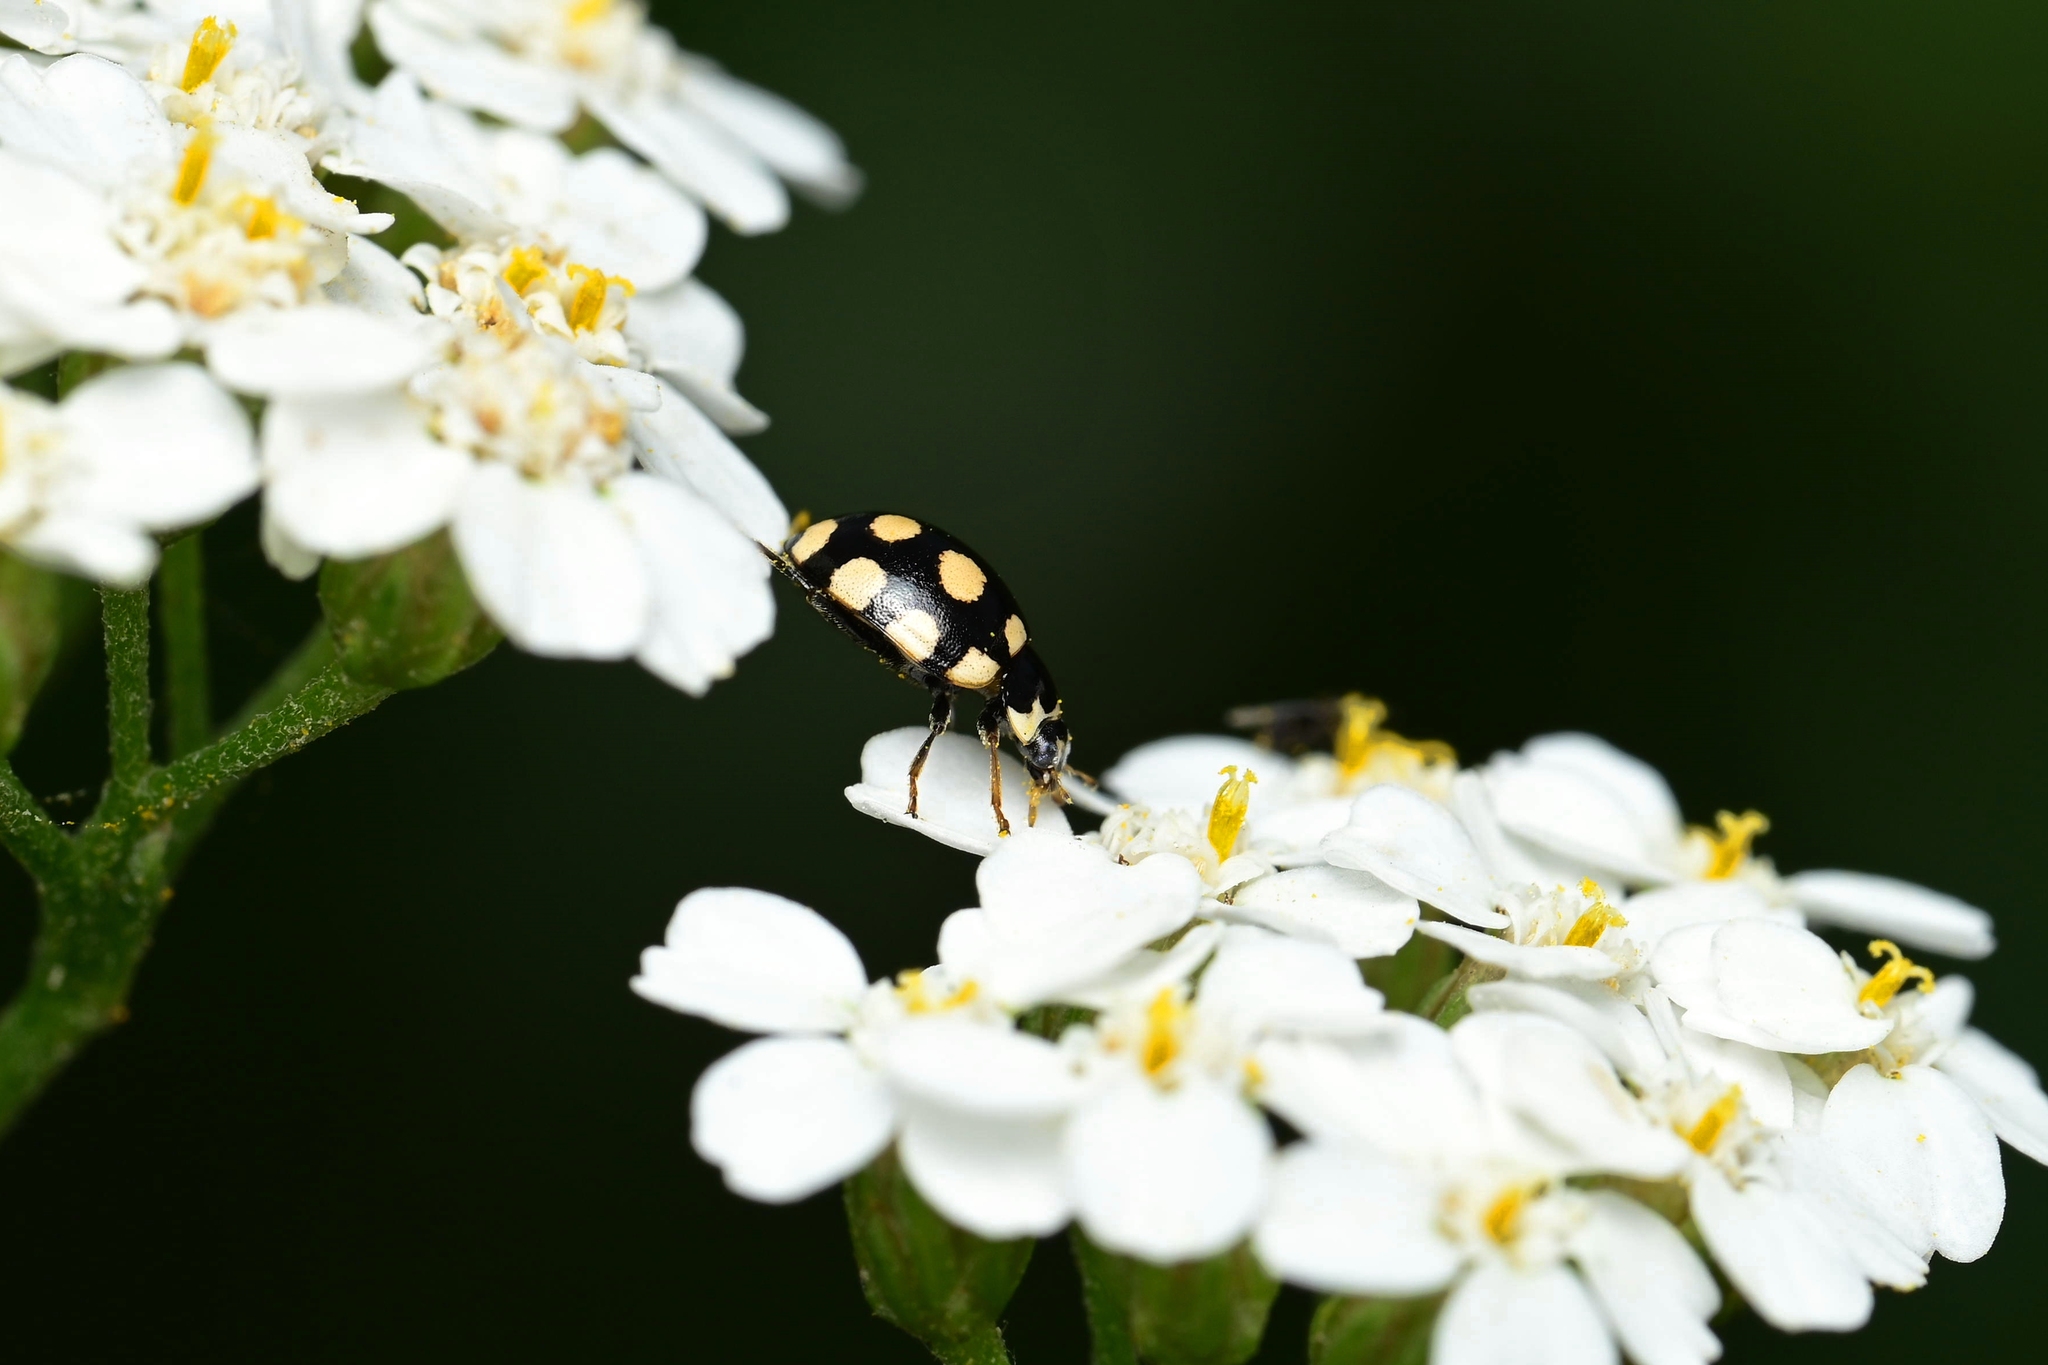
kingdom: Animalia
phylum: Arthropoda
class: Insecta
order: Coleoptera
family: Coccinellidae
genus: Coccinula
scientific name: Coccinula quatuordecimpustulata
